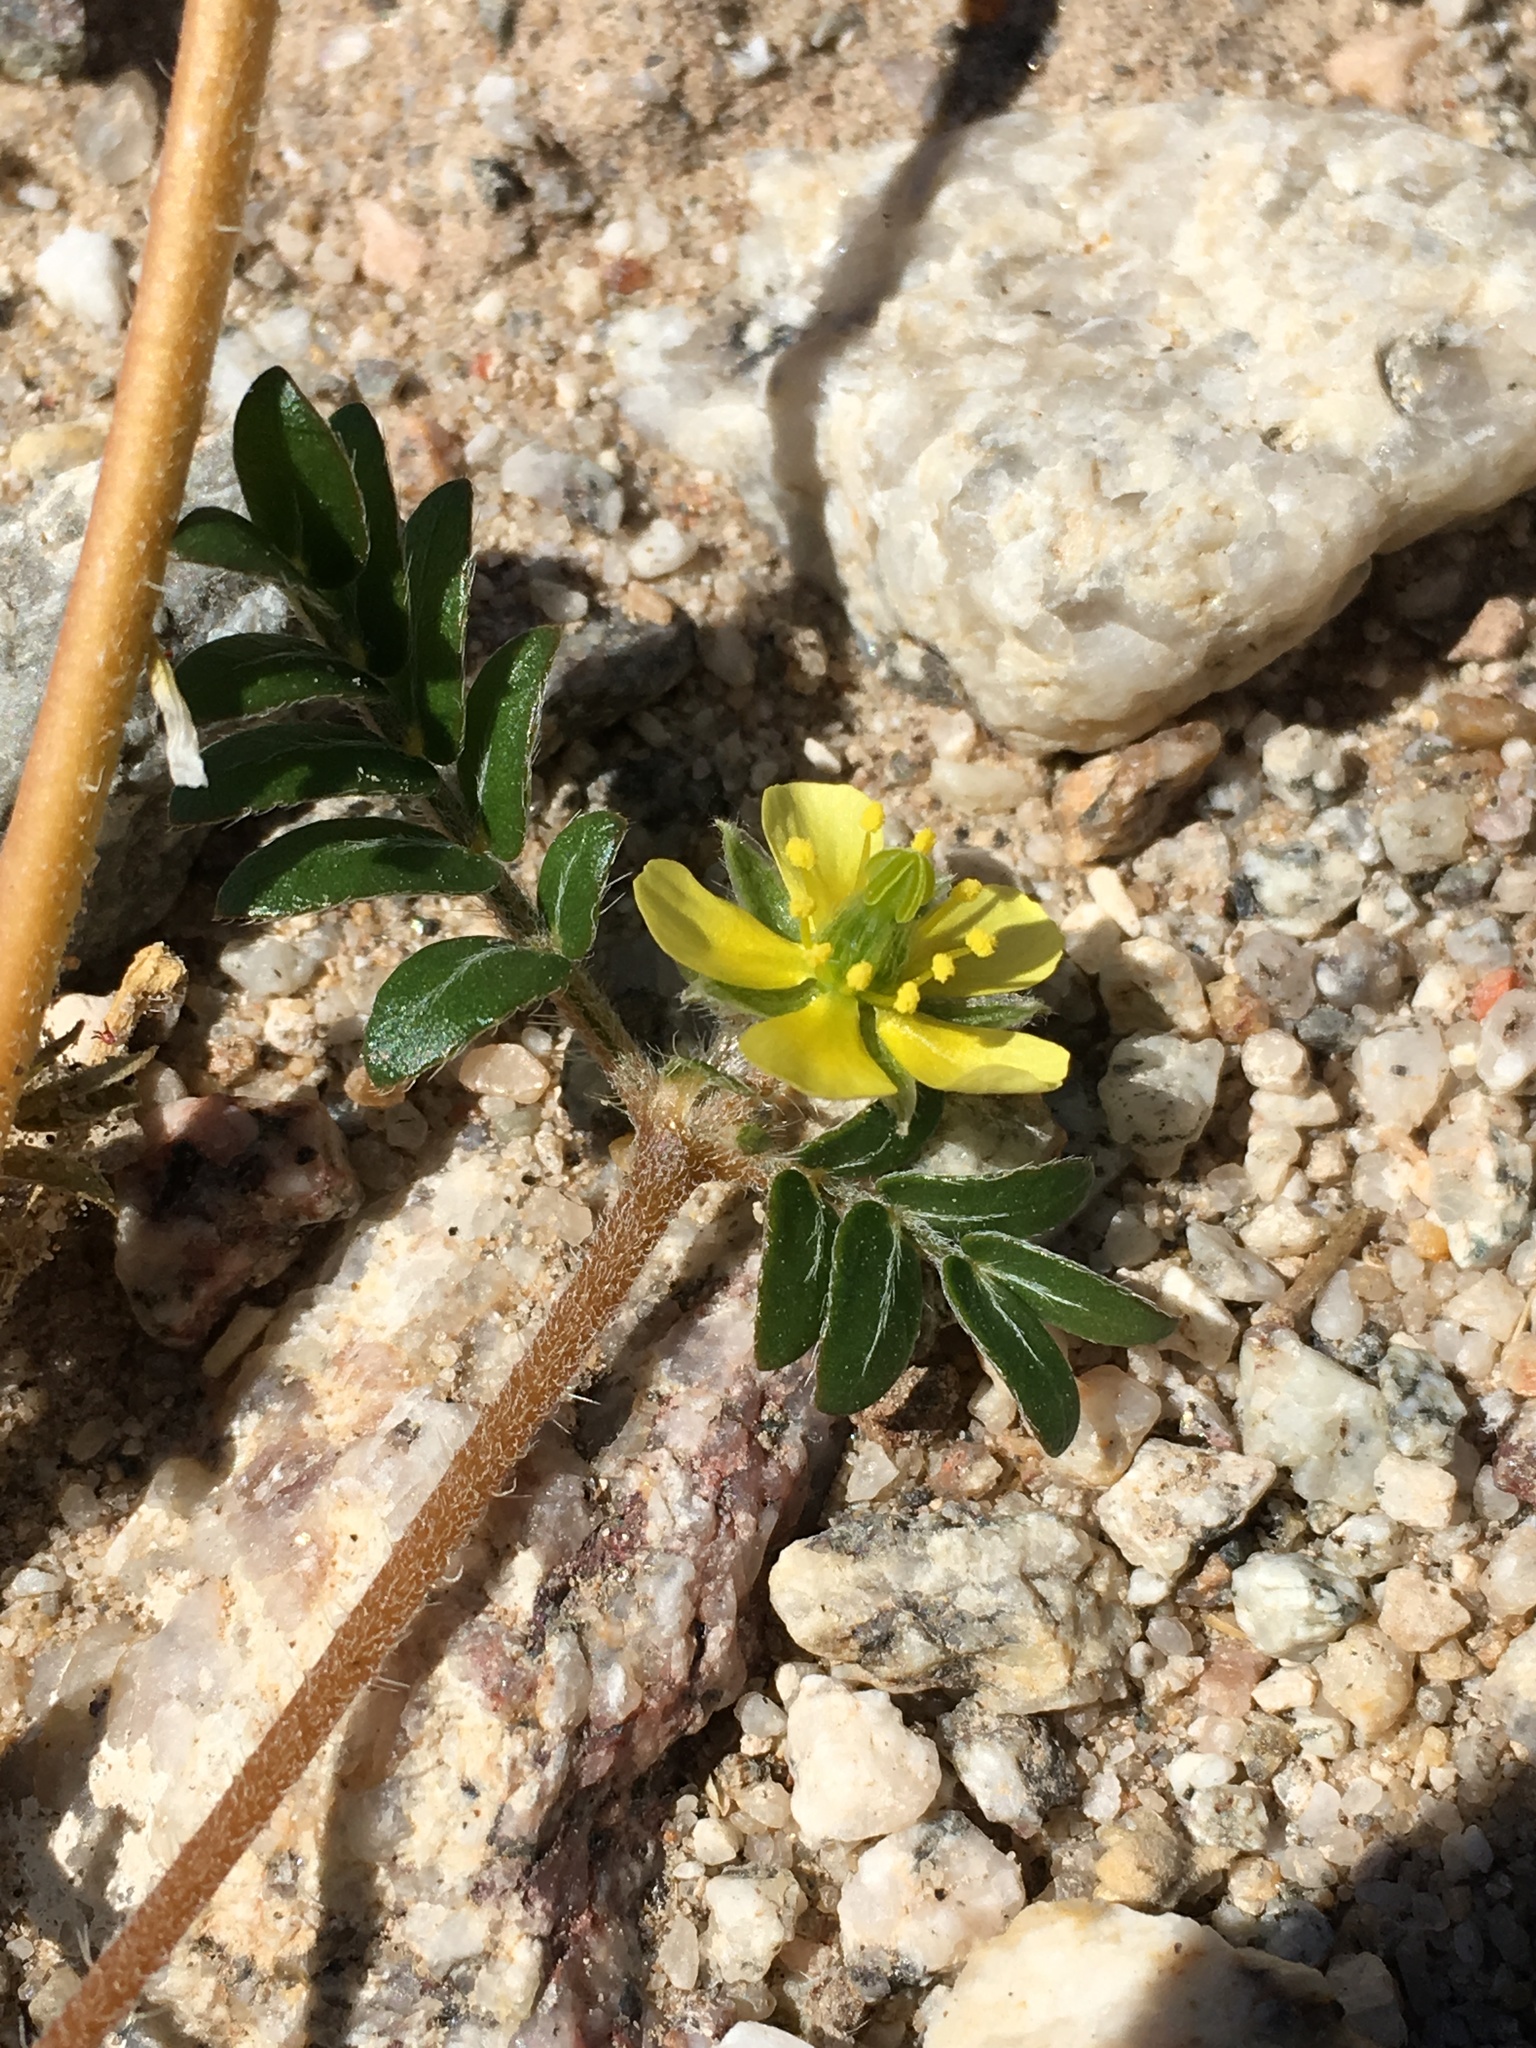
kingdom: Plantae
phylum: Tracheophyta
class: Magnoliopsida
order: Zygophyllales
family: Zygophyllaceae
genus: Tribulus
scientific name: Tribulus terrestris
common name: Puncturevine
